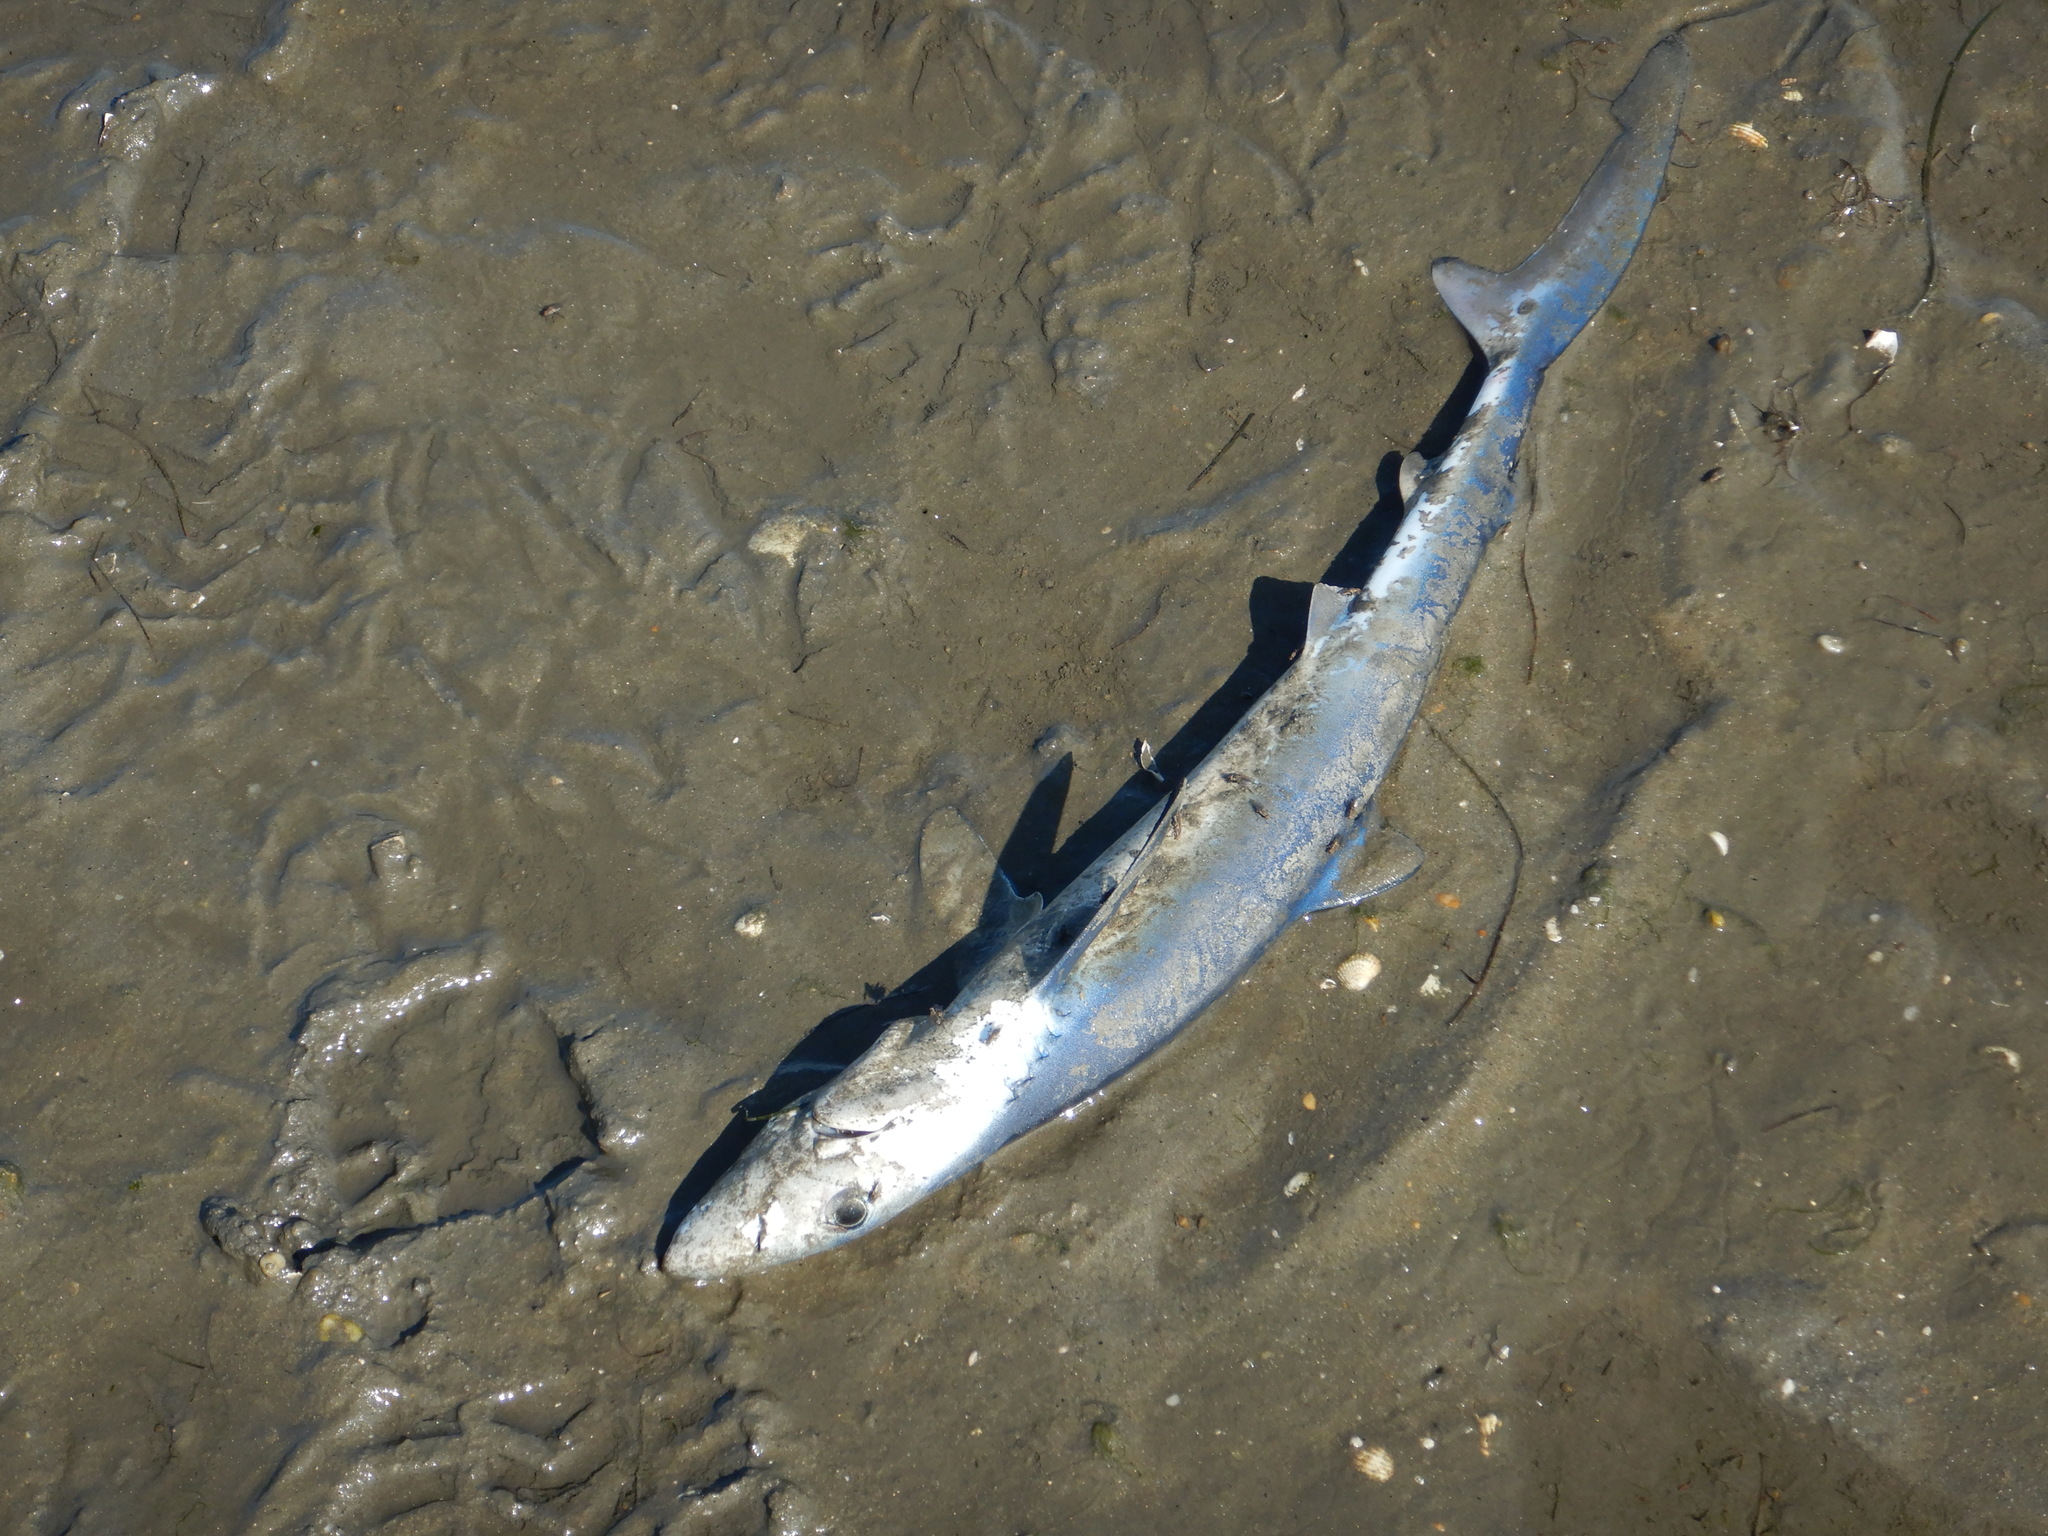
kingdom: Animalia
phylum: Chordata
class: Elasmobranchii
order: Carcharhiniformes
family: Carcharhinidae
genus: Prionace
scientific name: Prionace glauca
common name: Blue shark
